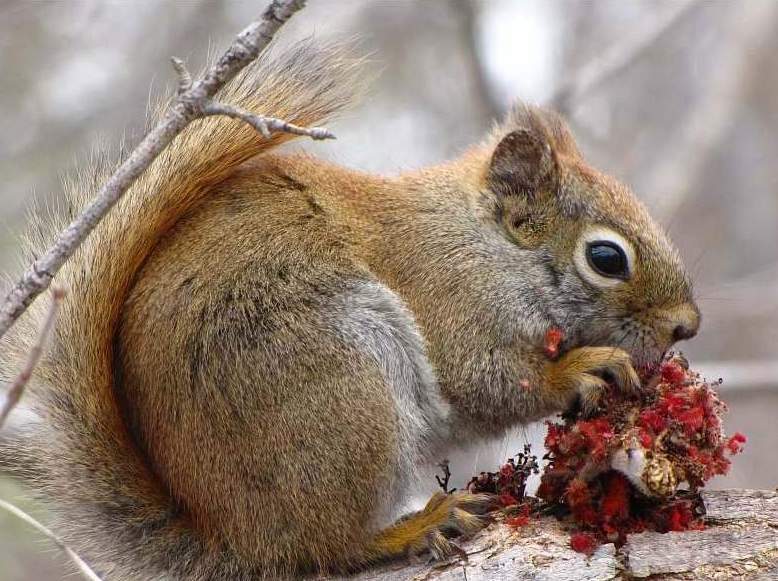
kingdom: Animalia
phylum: Chordata
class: Mammalia
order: Rodentia
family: Sciuridae
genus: Tamiasciurus
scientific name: Tamiasciurus hudsonicus
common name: Red squirrel
